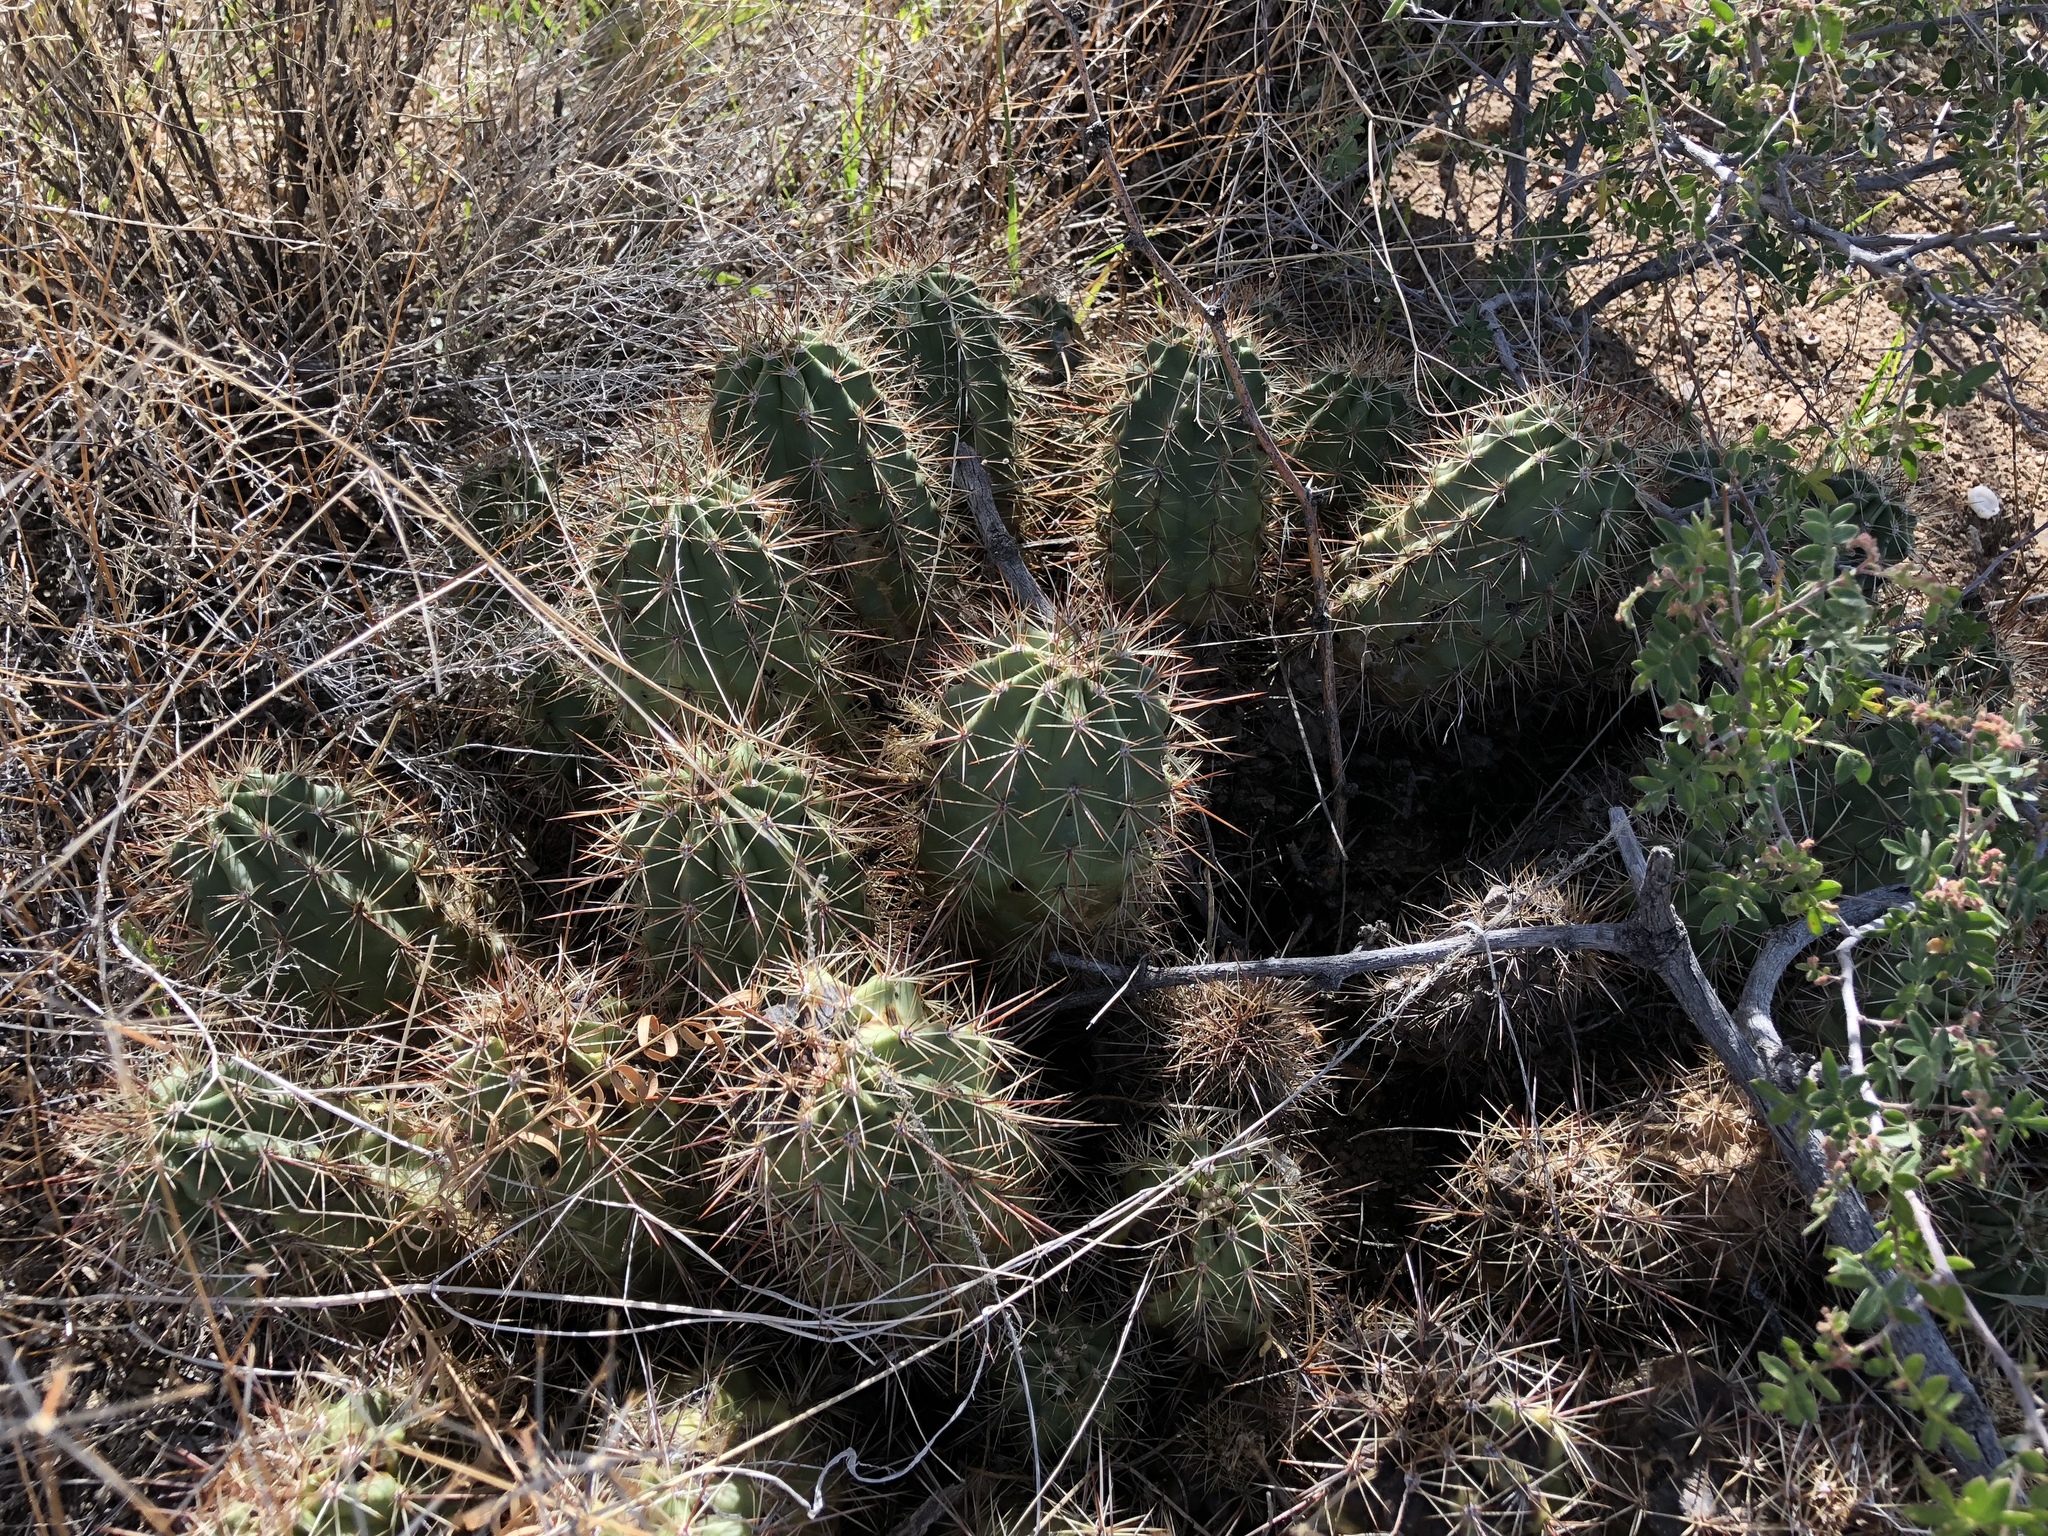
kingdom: Plantae
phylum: Tracheophyta
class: Magnoliopsida
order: Caryophyllales
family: Cactaceae
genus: Echinocereus
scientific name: Echinocereus coccineus
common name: Scarlet hedgehog cactus
